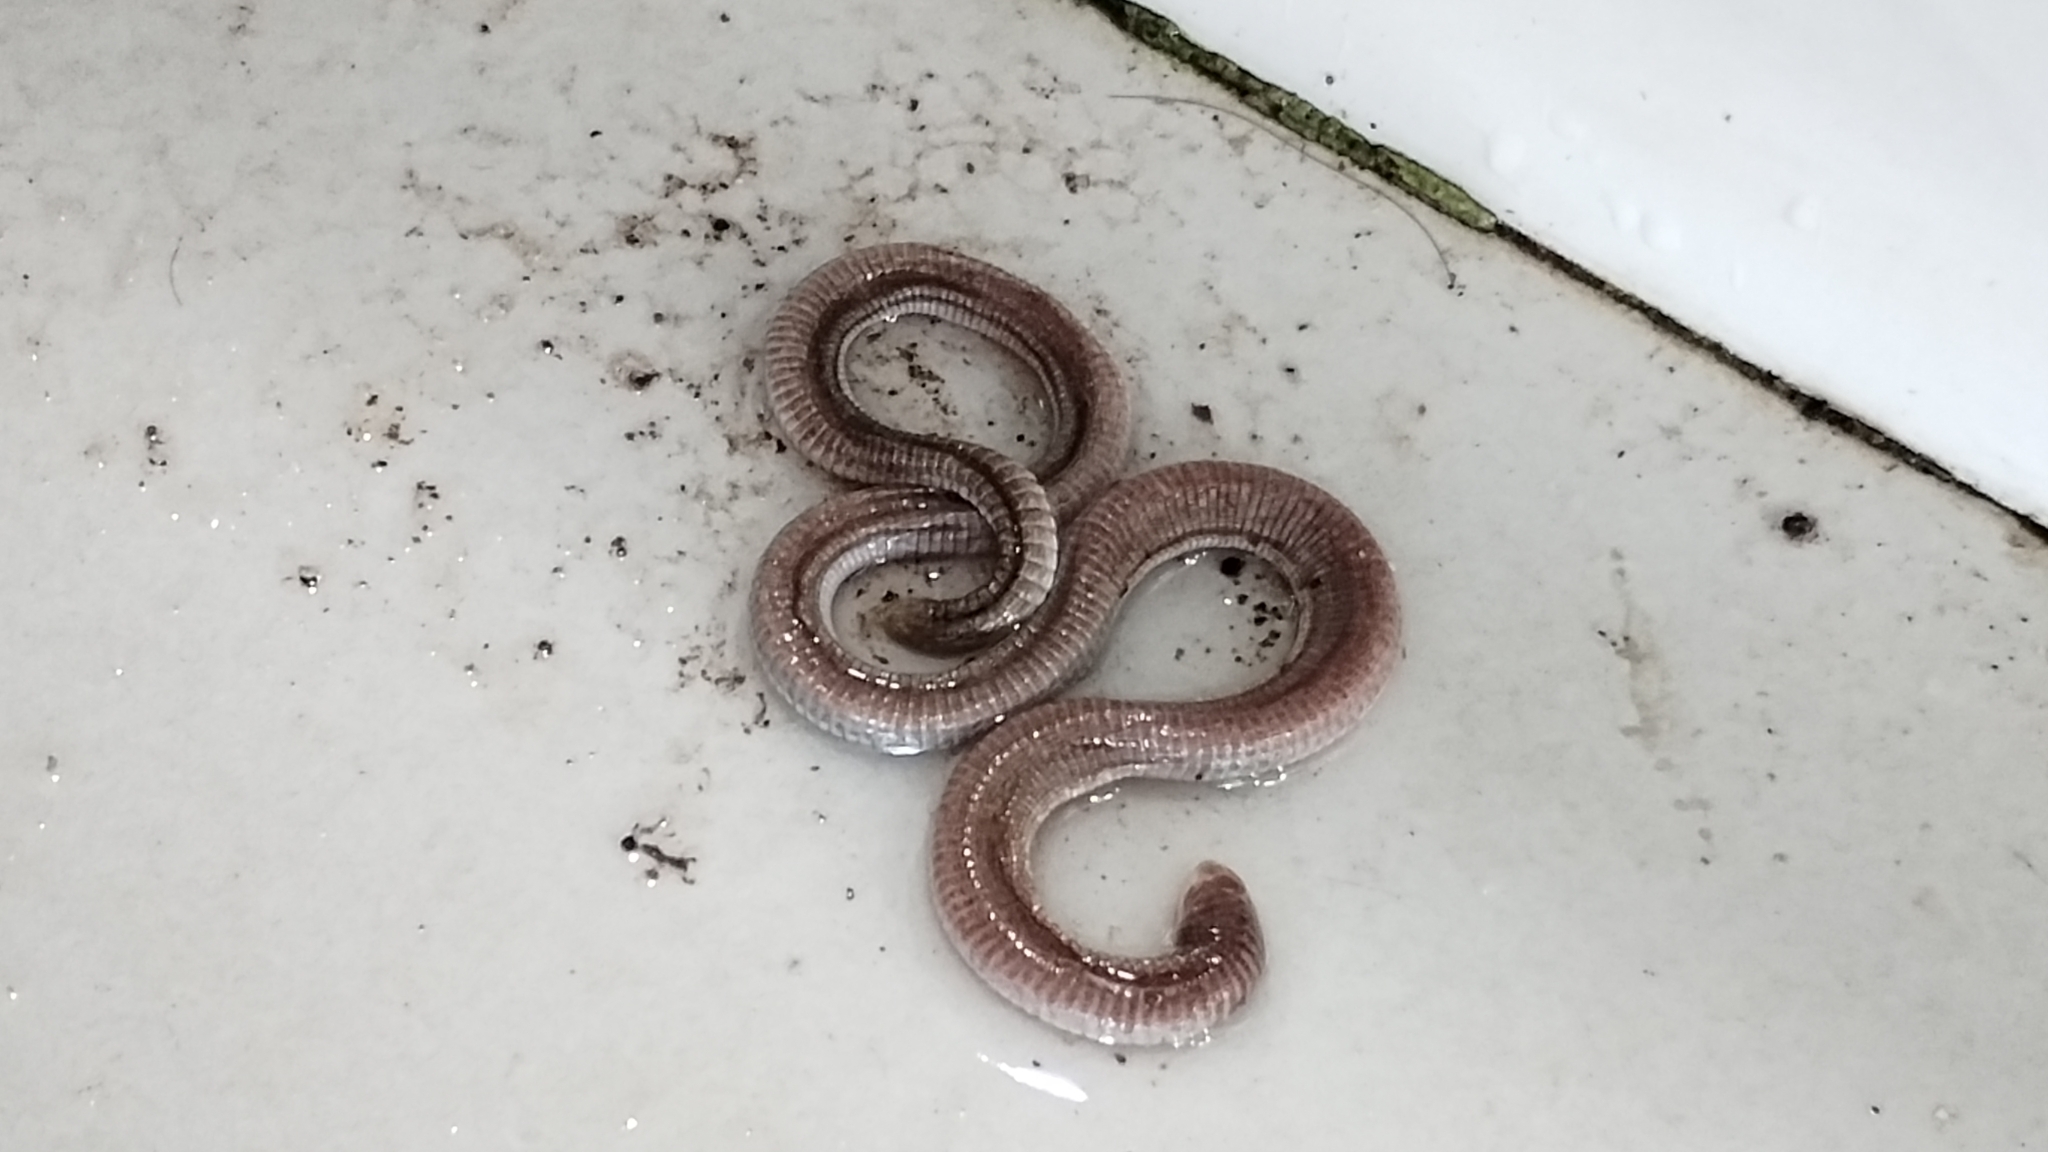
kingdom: Animalia
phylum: Chordata
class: Squamata
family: Amphisbaenidae
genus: Amphisbaena
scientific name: Amphisbaena vermicularis
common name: Wagler's worm lizard
